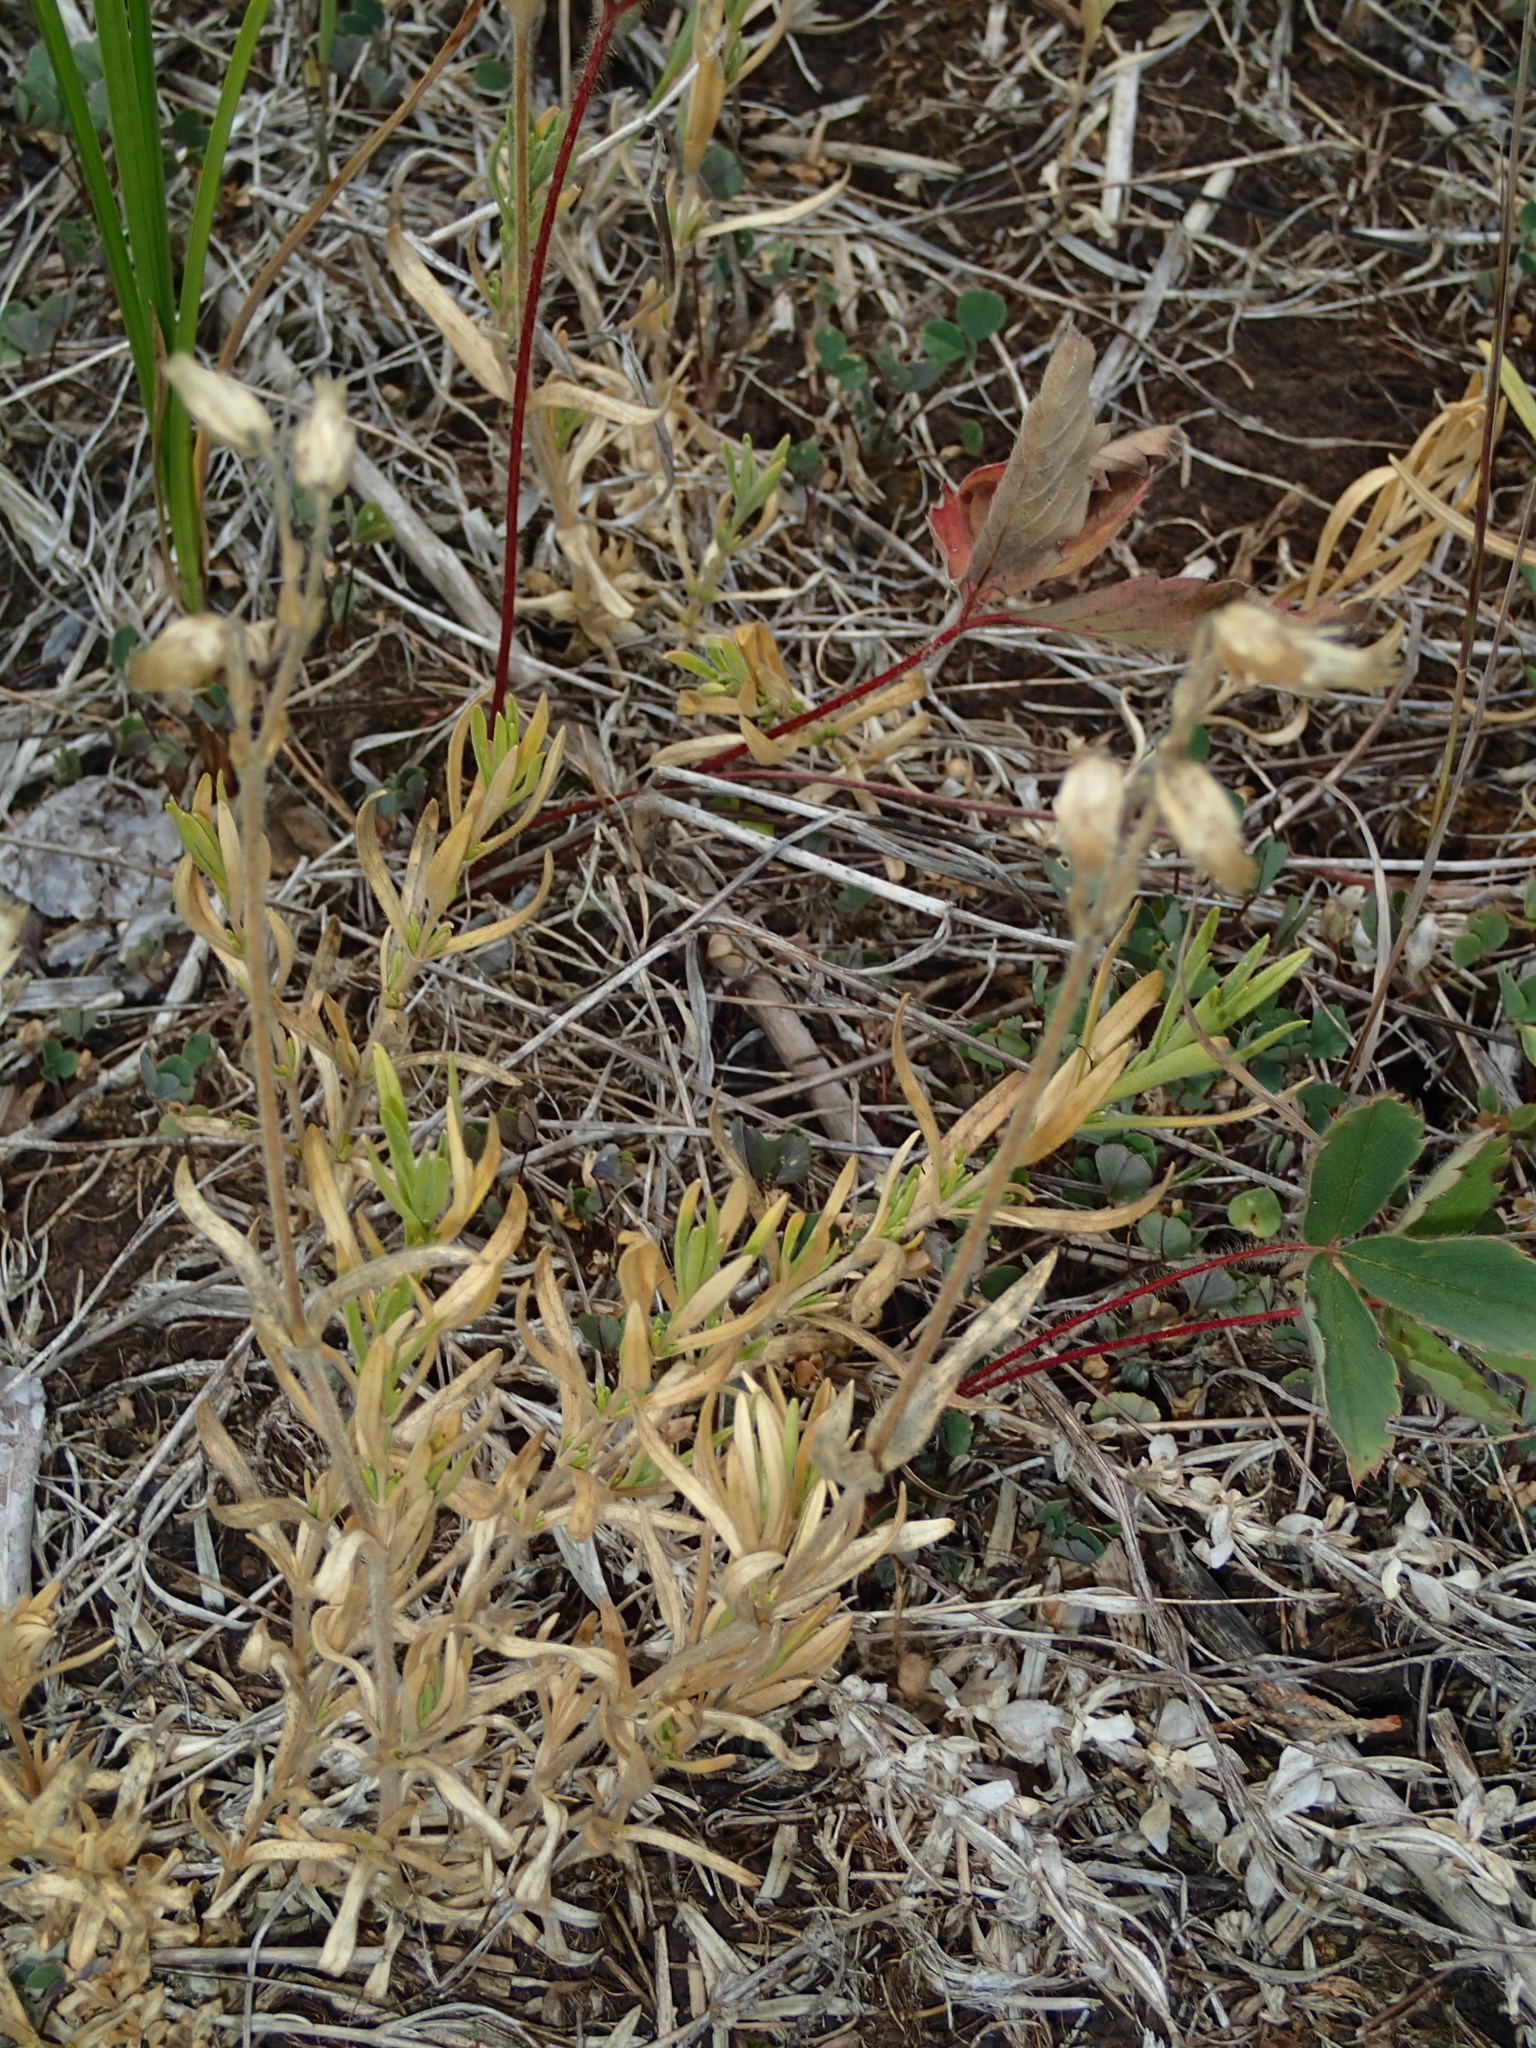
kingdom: Plantae
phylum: Tracheophyta
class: Magnoliopsida
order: Caryophyllales
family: Caryophyllaceae
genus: Cerastium
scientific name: Cerastium arvense
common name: Field mouse-ear
